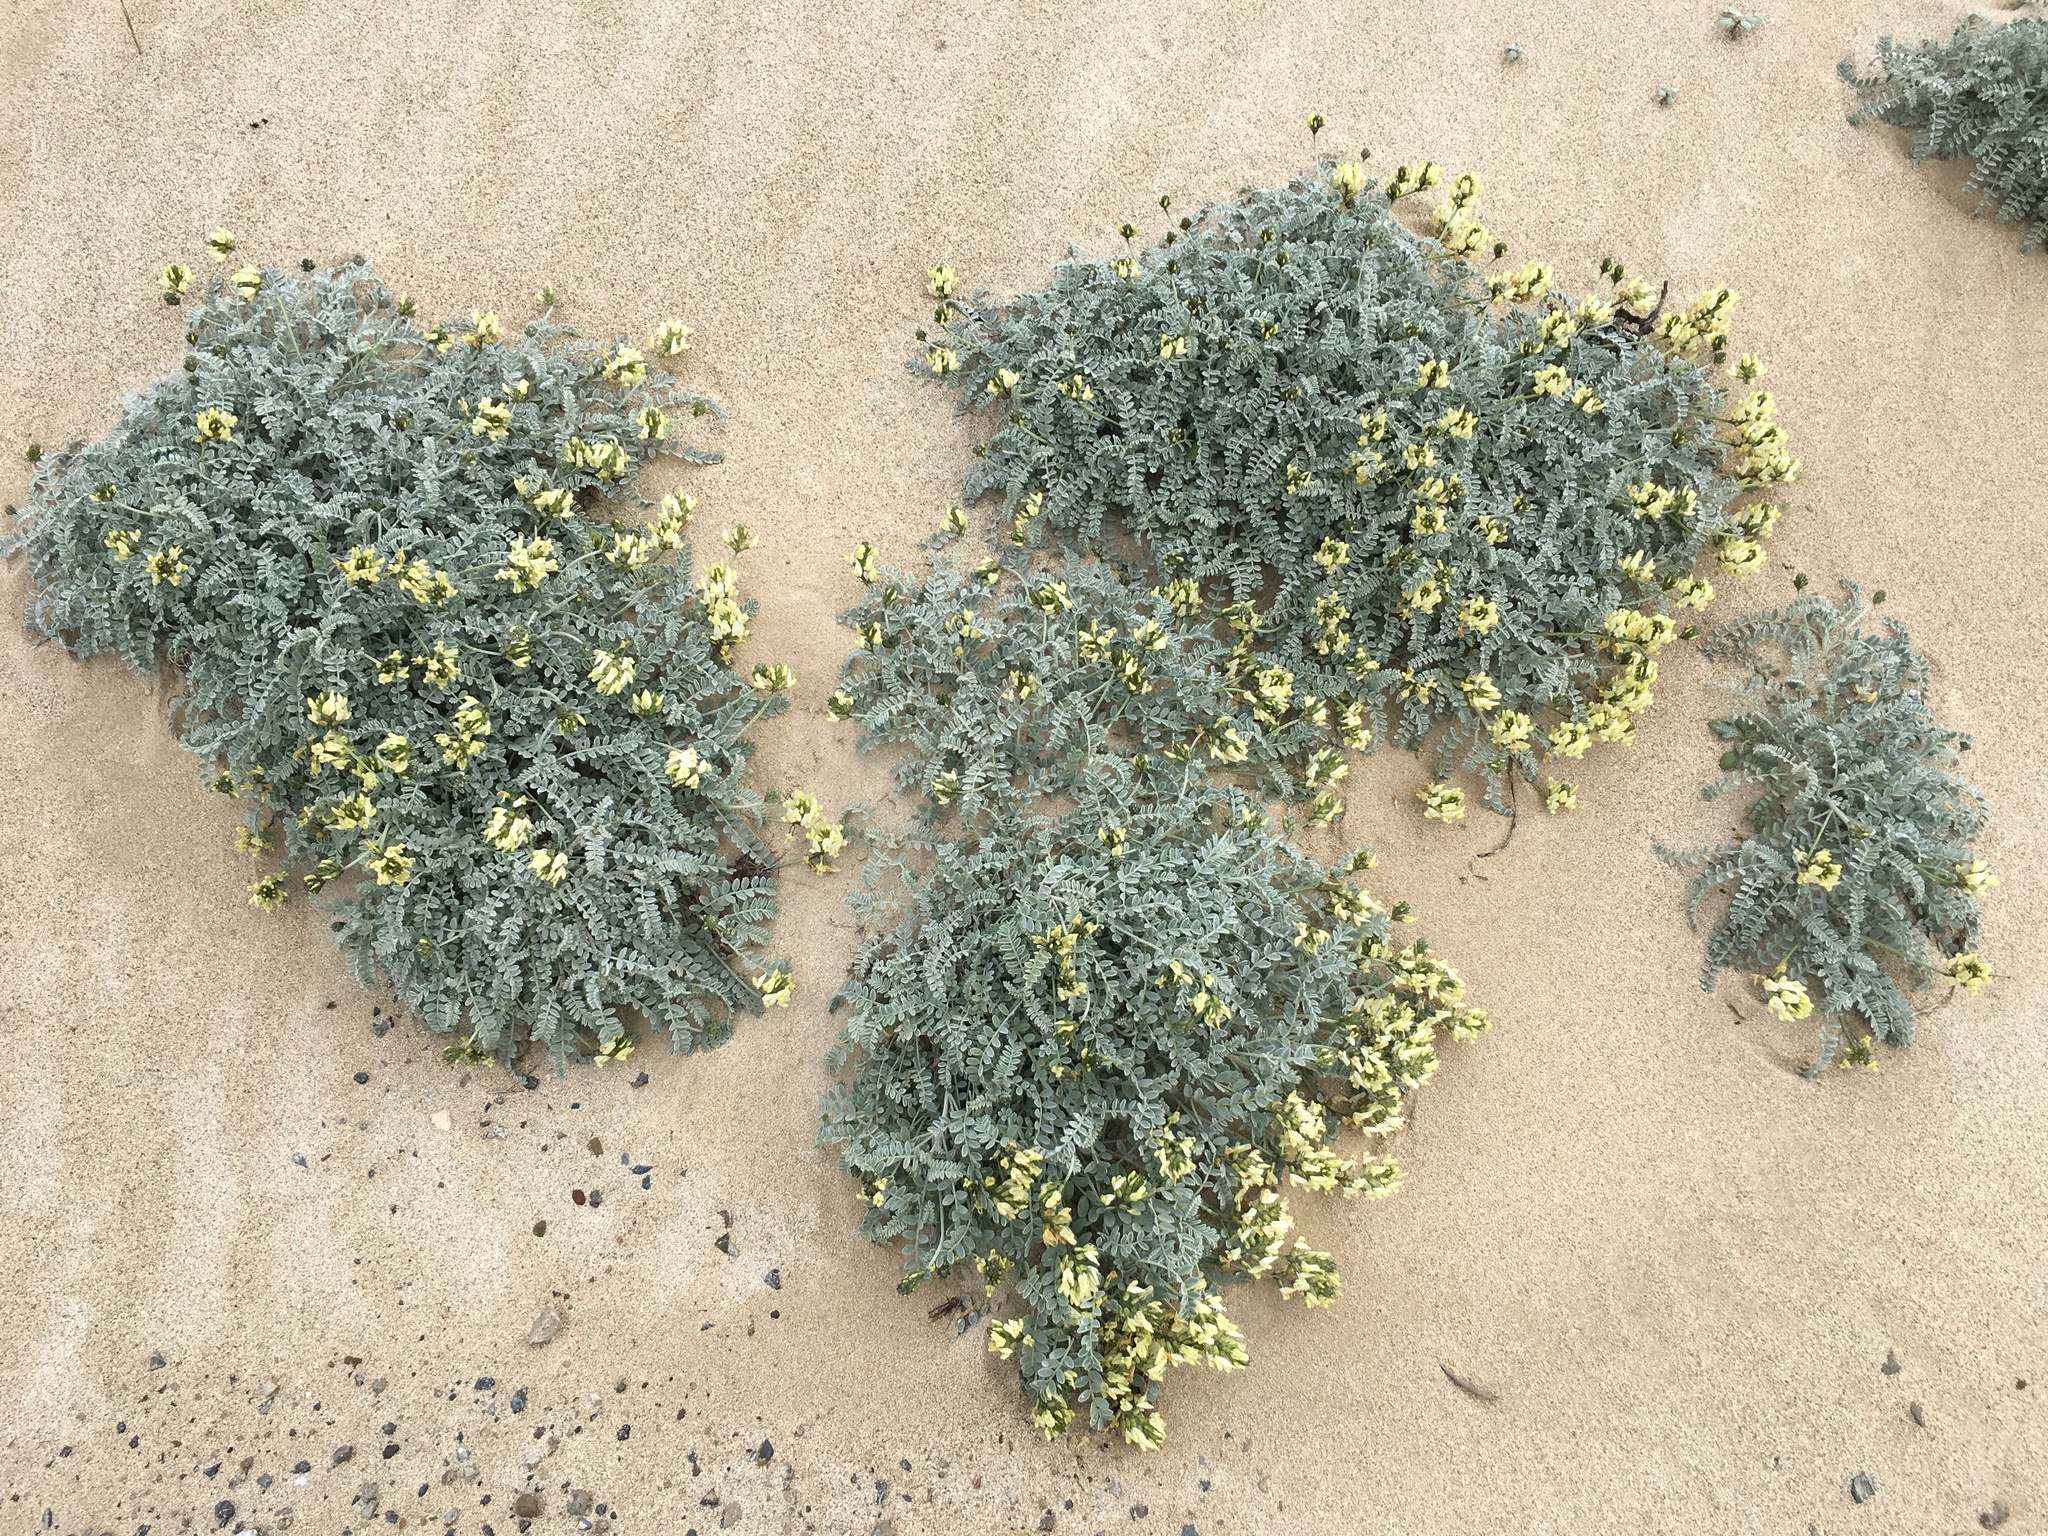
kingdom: Plantae
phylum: Tracheophyta
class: Magnoliopsida
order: Fabales
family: Fabaceae
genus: Astragalus
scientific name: Astragalus traskiae
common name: Trask's milk-vetch
